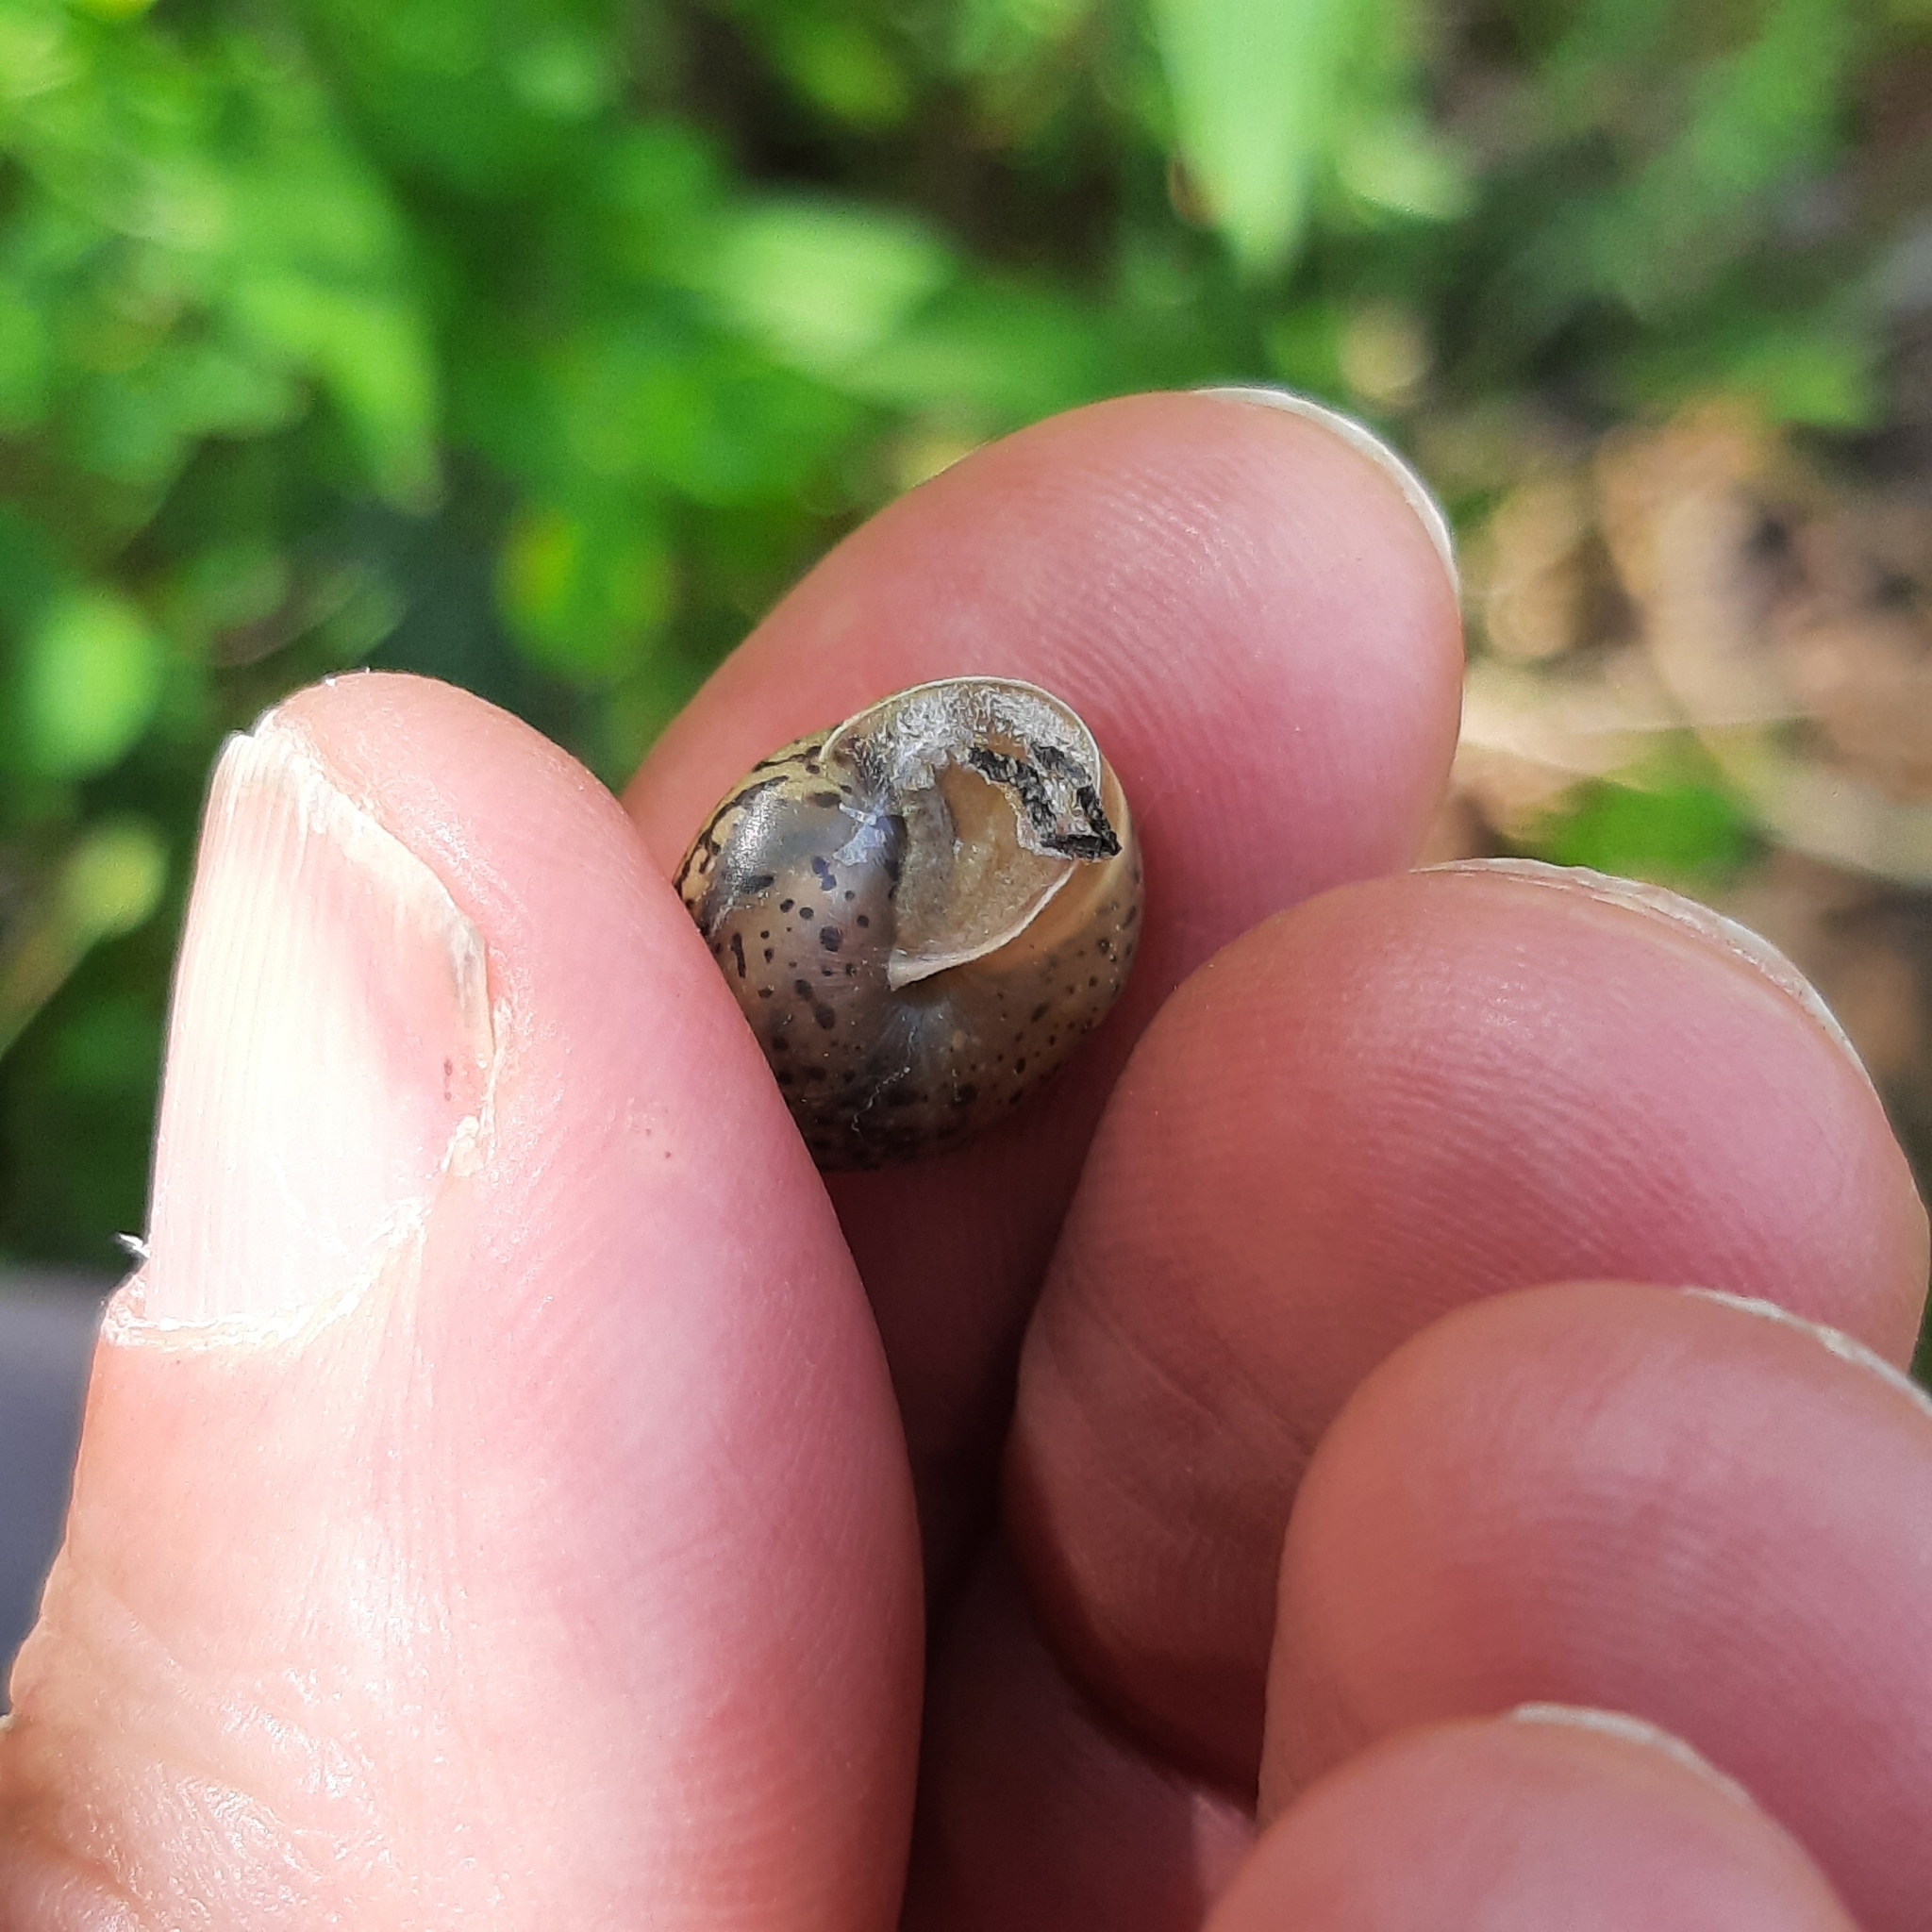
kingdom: Animalia
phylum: Mollusca
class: Gastropoda
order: Stylommatophora
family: Hygromiidae
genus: Monachoides
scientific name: Monachoides incarnatus
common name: Incarnate snail
